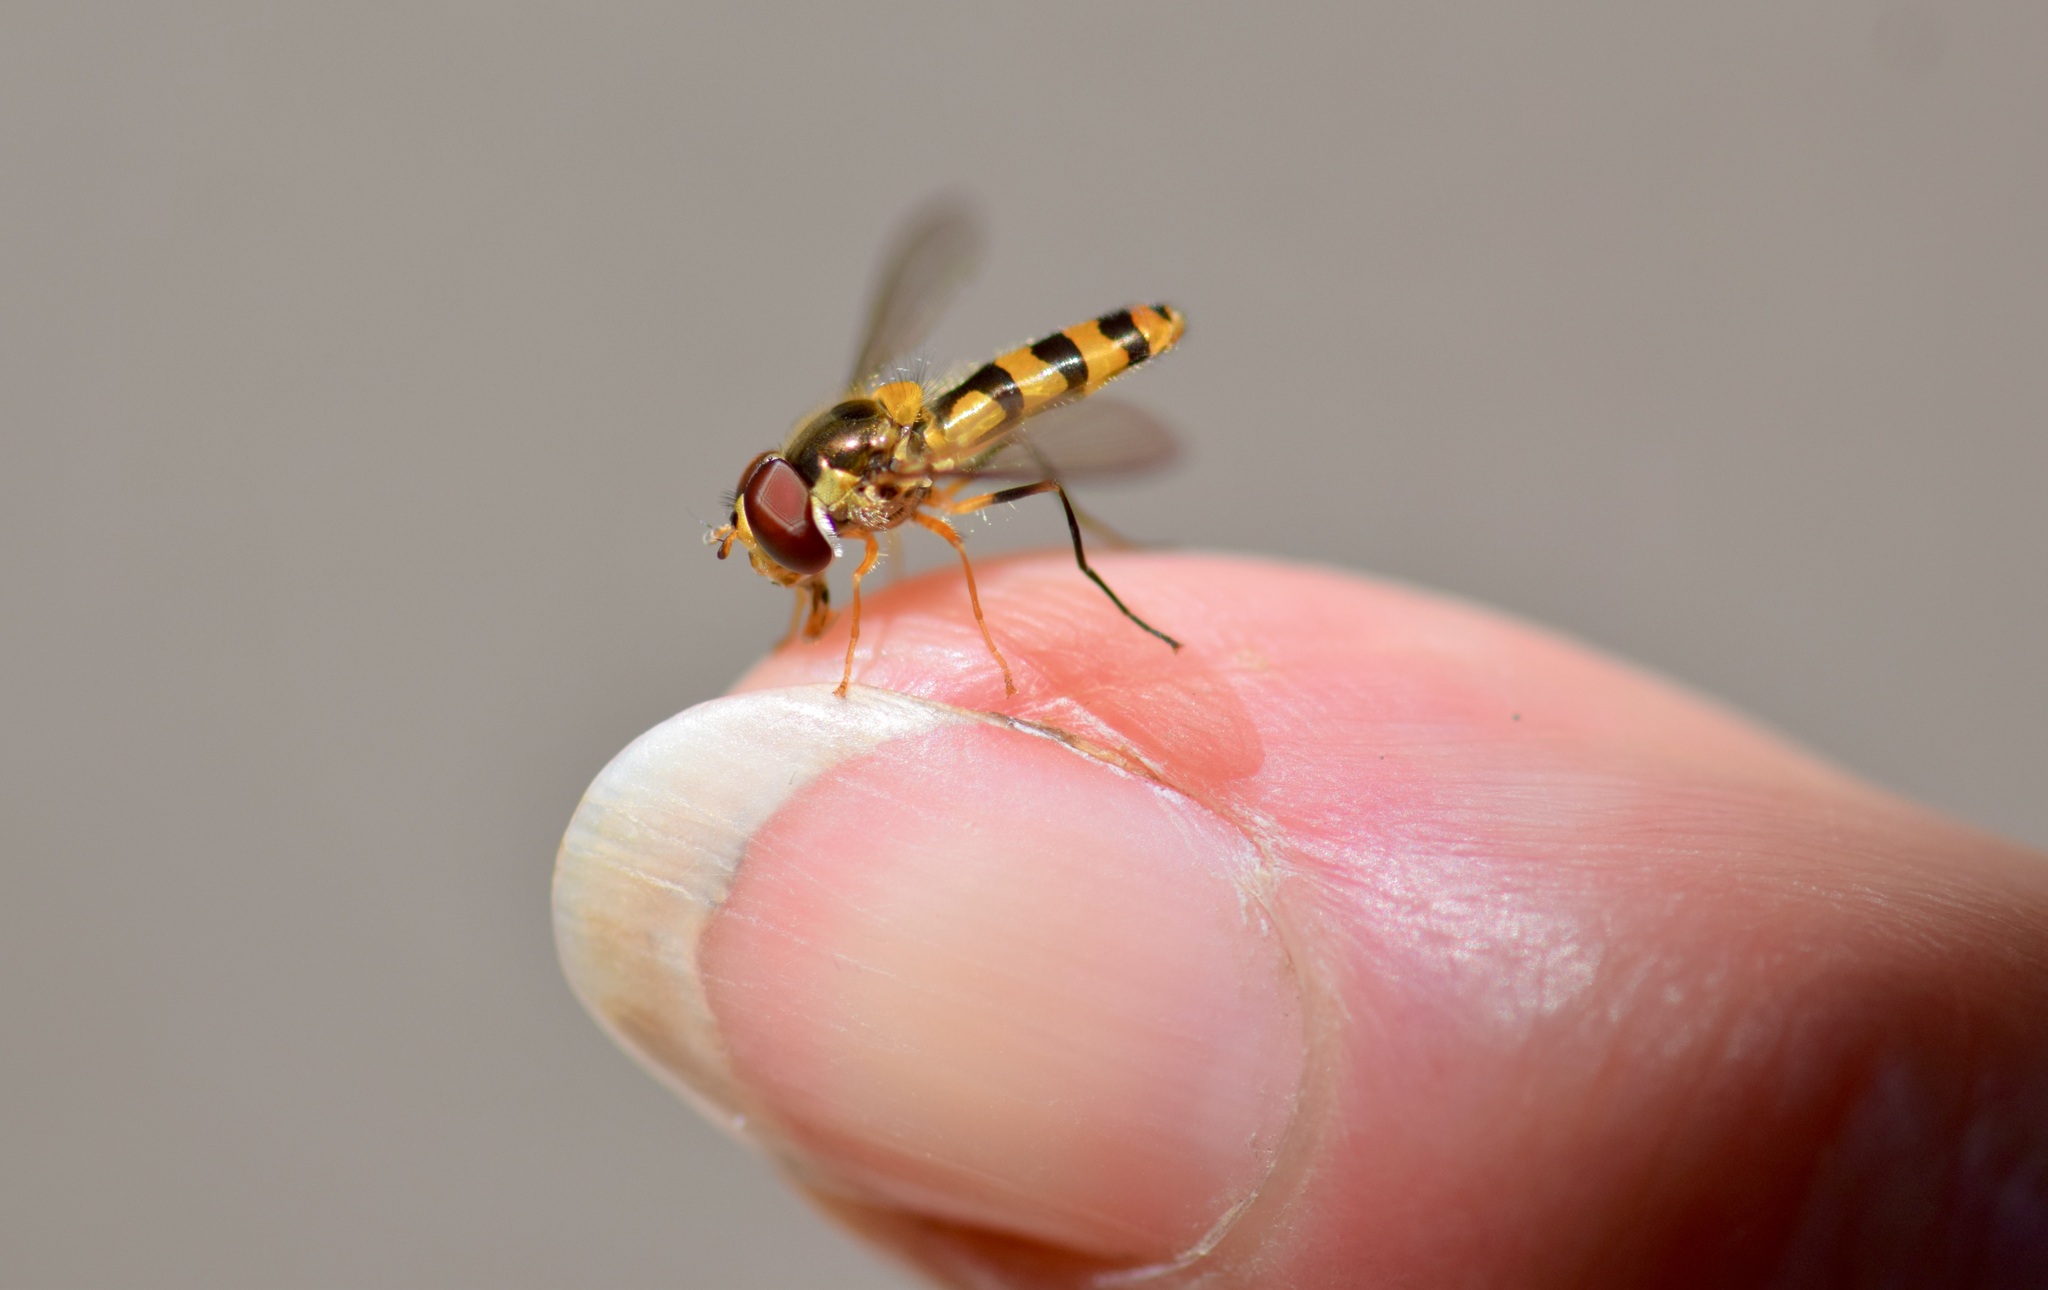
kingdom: Animalia
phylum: Arthropoda
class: Insecta
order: Diptera
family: Syrphidae
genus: Meliscaeva
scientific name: Meliscaeva cinctella
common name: American thintail fly
